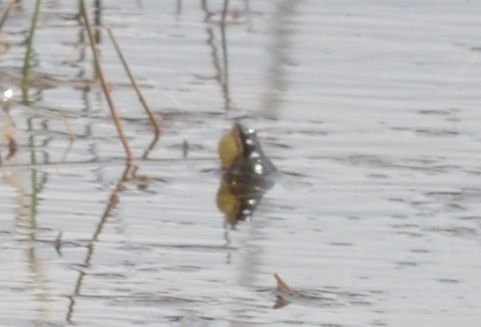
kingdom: Animalia
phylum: Chordata
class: Amphibia
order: Anura
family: Hylidae
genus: Pseudacris
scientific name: Pseudacris maculata
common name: Boreal chorus frog
